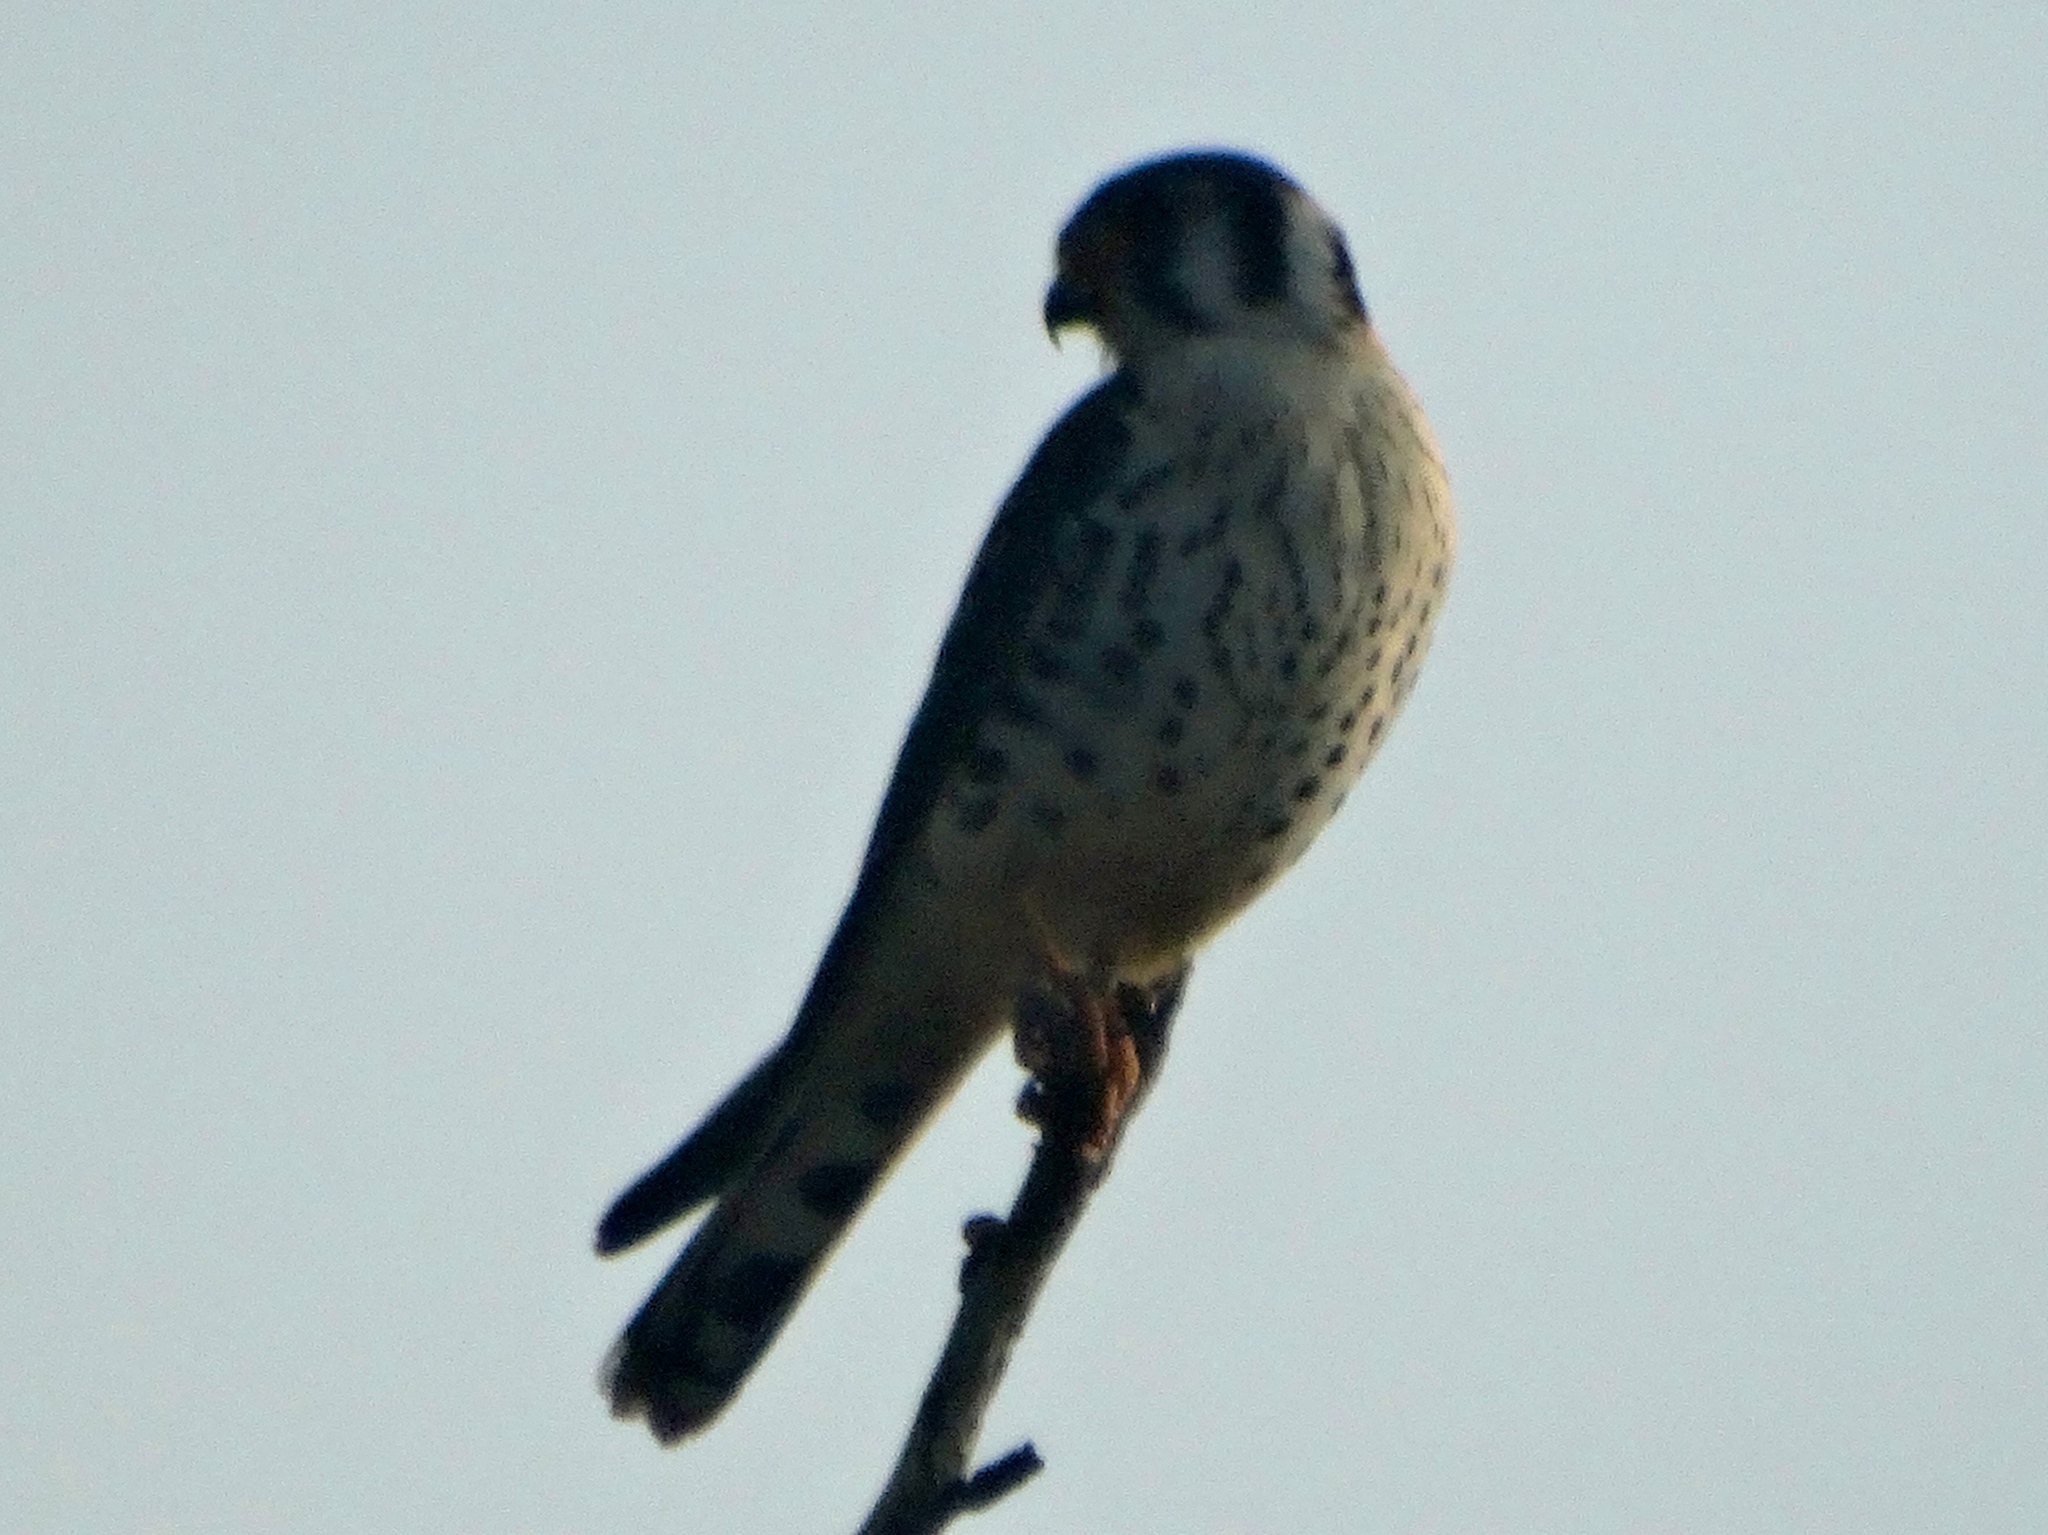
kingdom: Animalia
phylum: Chordata
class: Aves
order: Falconiformes
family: Falconidae
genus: Falco
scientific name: Falco sparverius
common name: American kestrel
